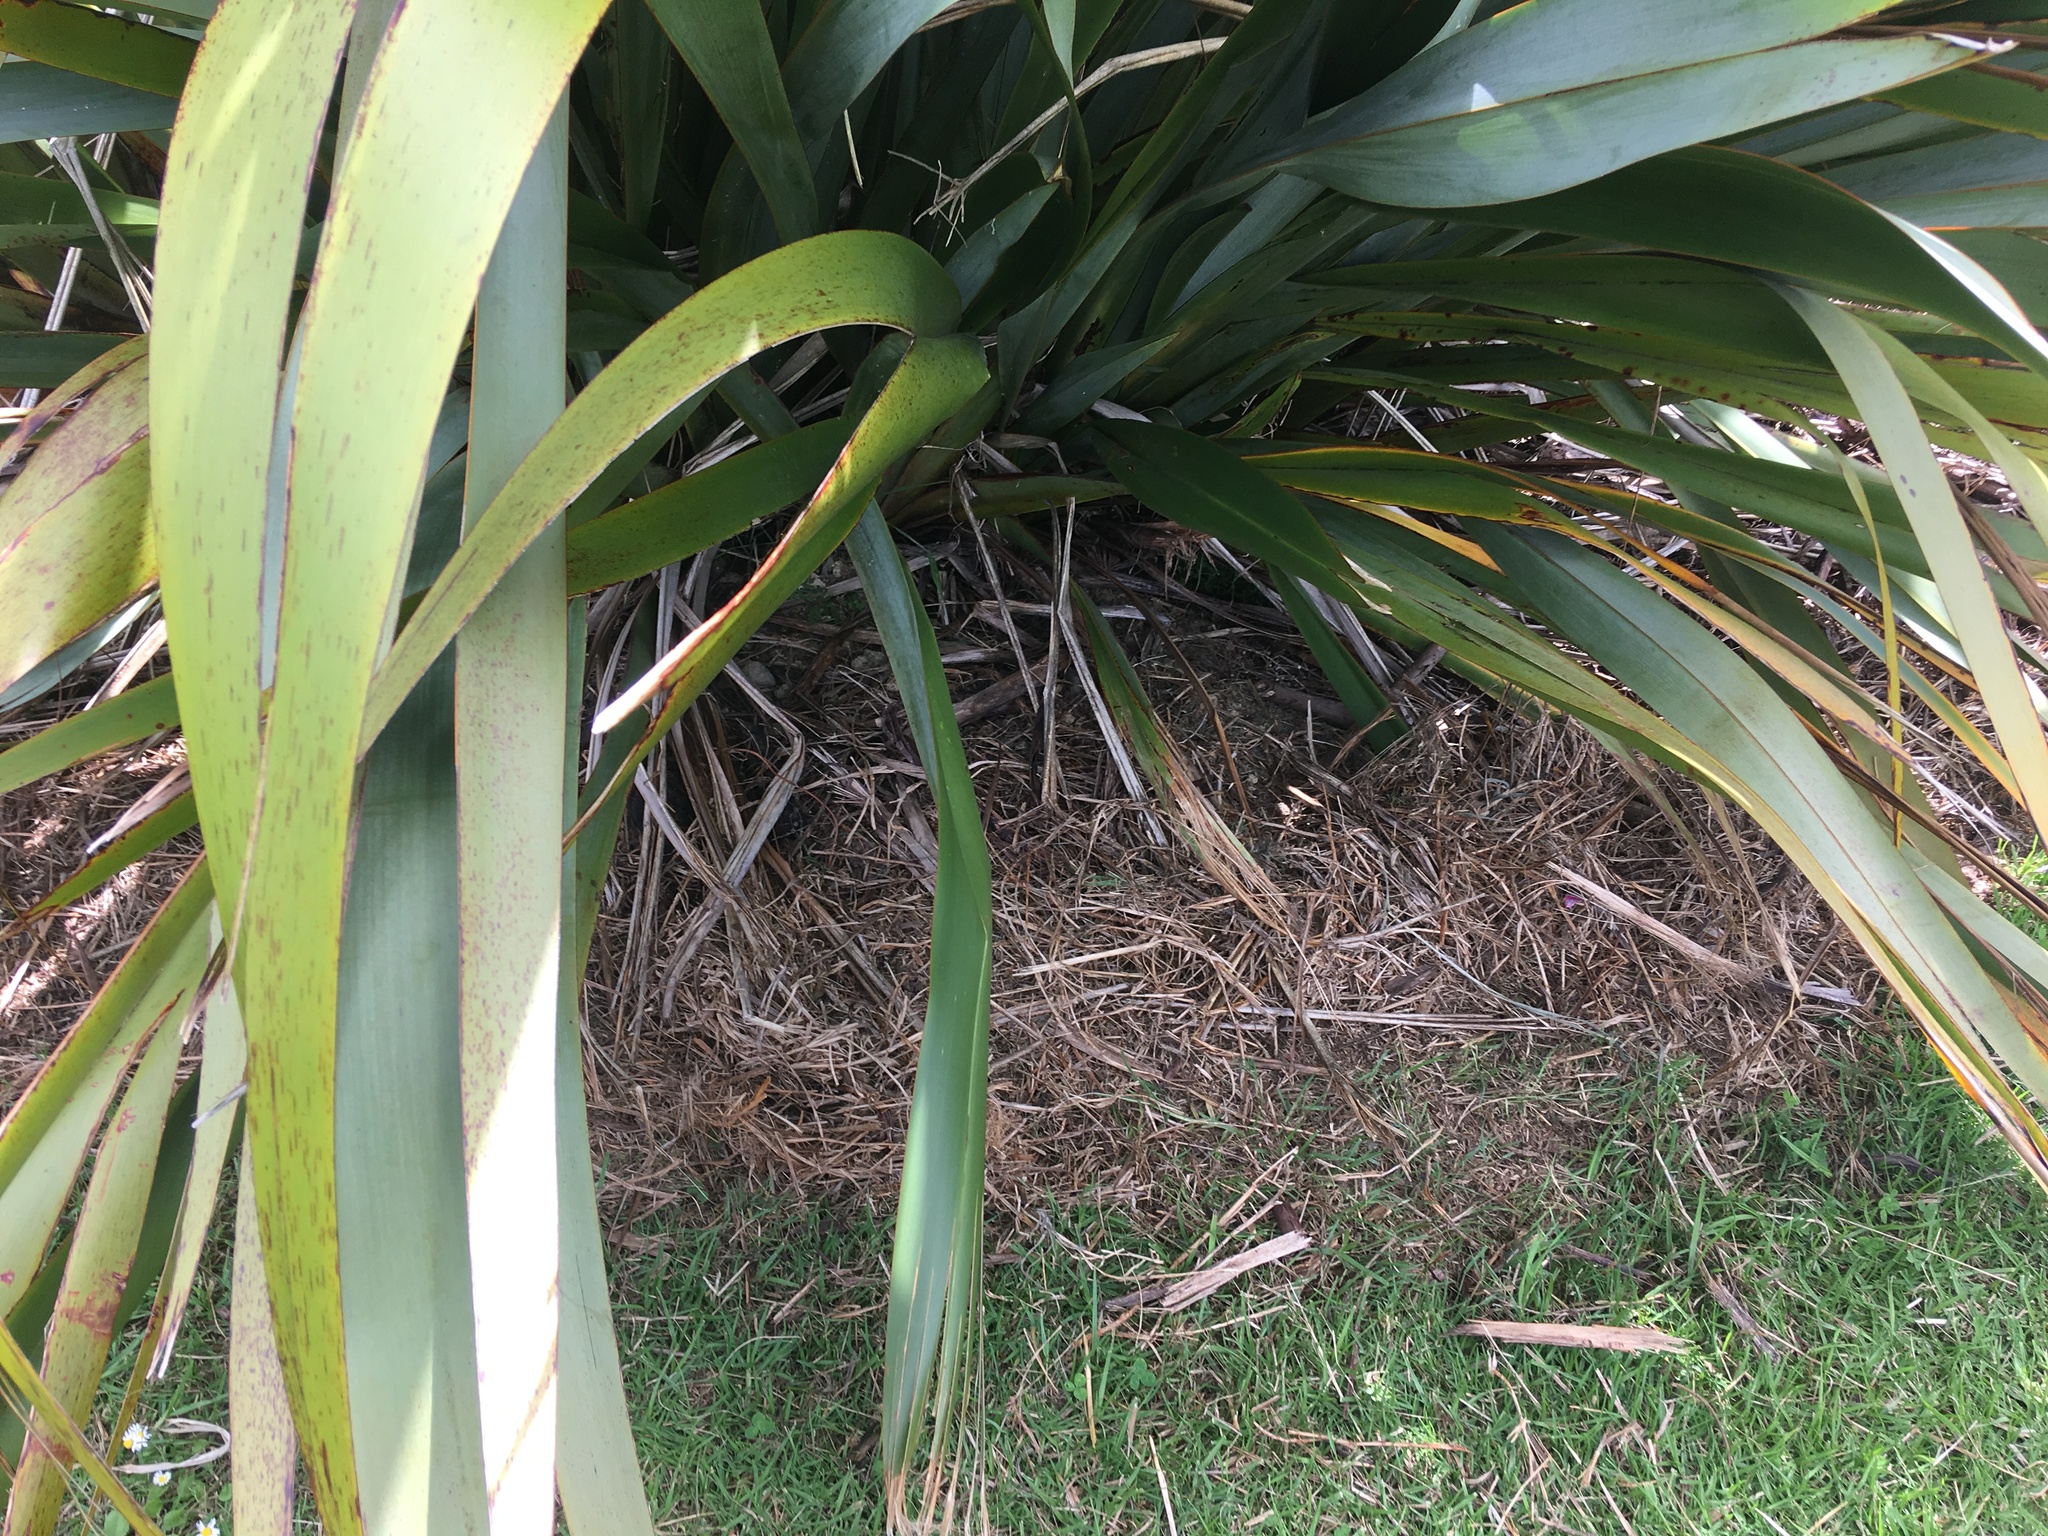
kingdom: Plantae
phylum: Tracheophyta
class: Liliopsida
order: Poales
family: Poaceae
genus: Cenchrus
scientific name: Cenchrus clandestinus
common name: Kikuyugrass
